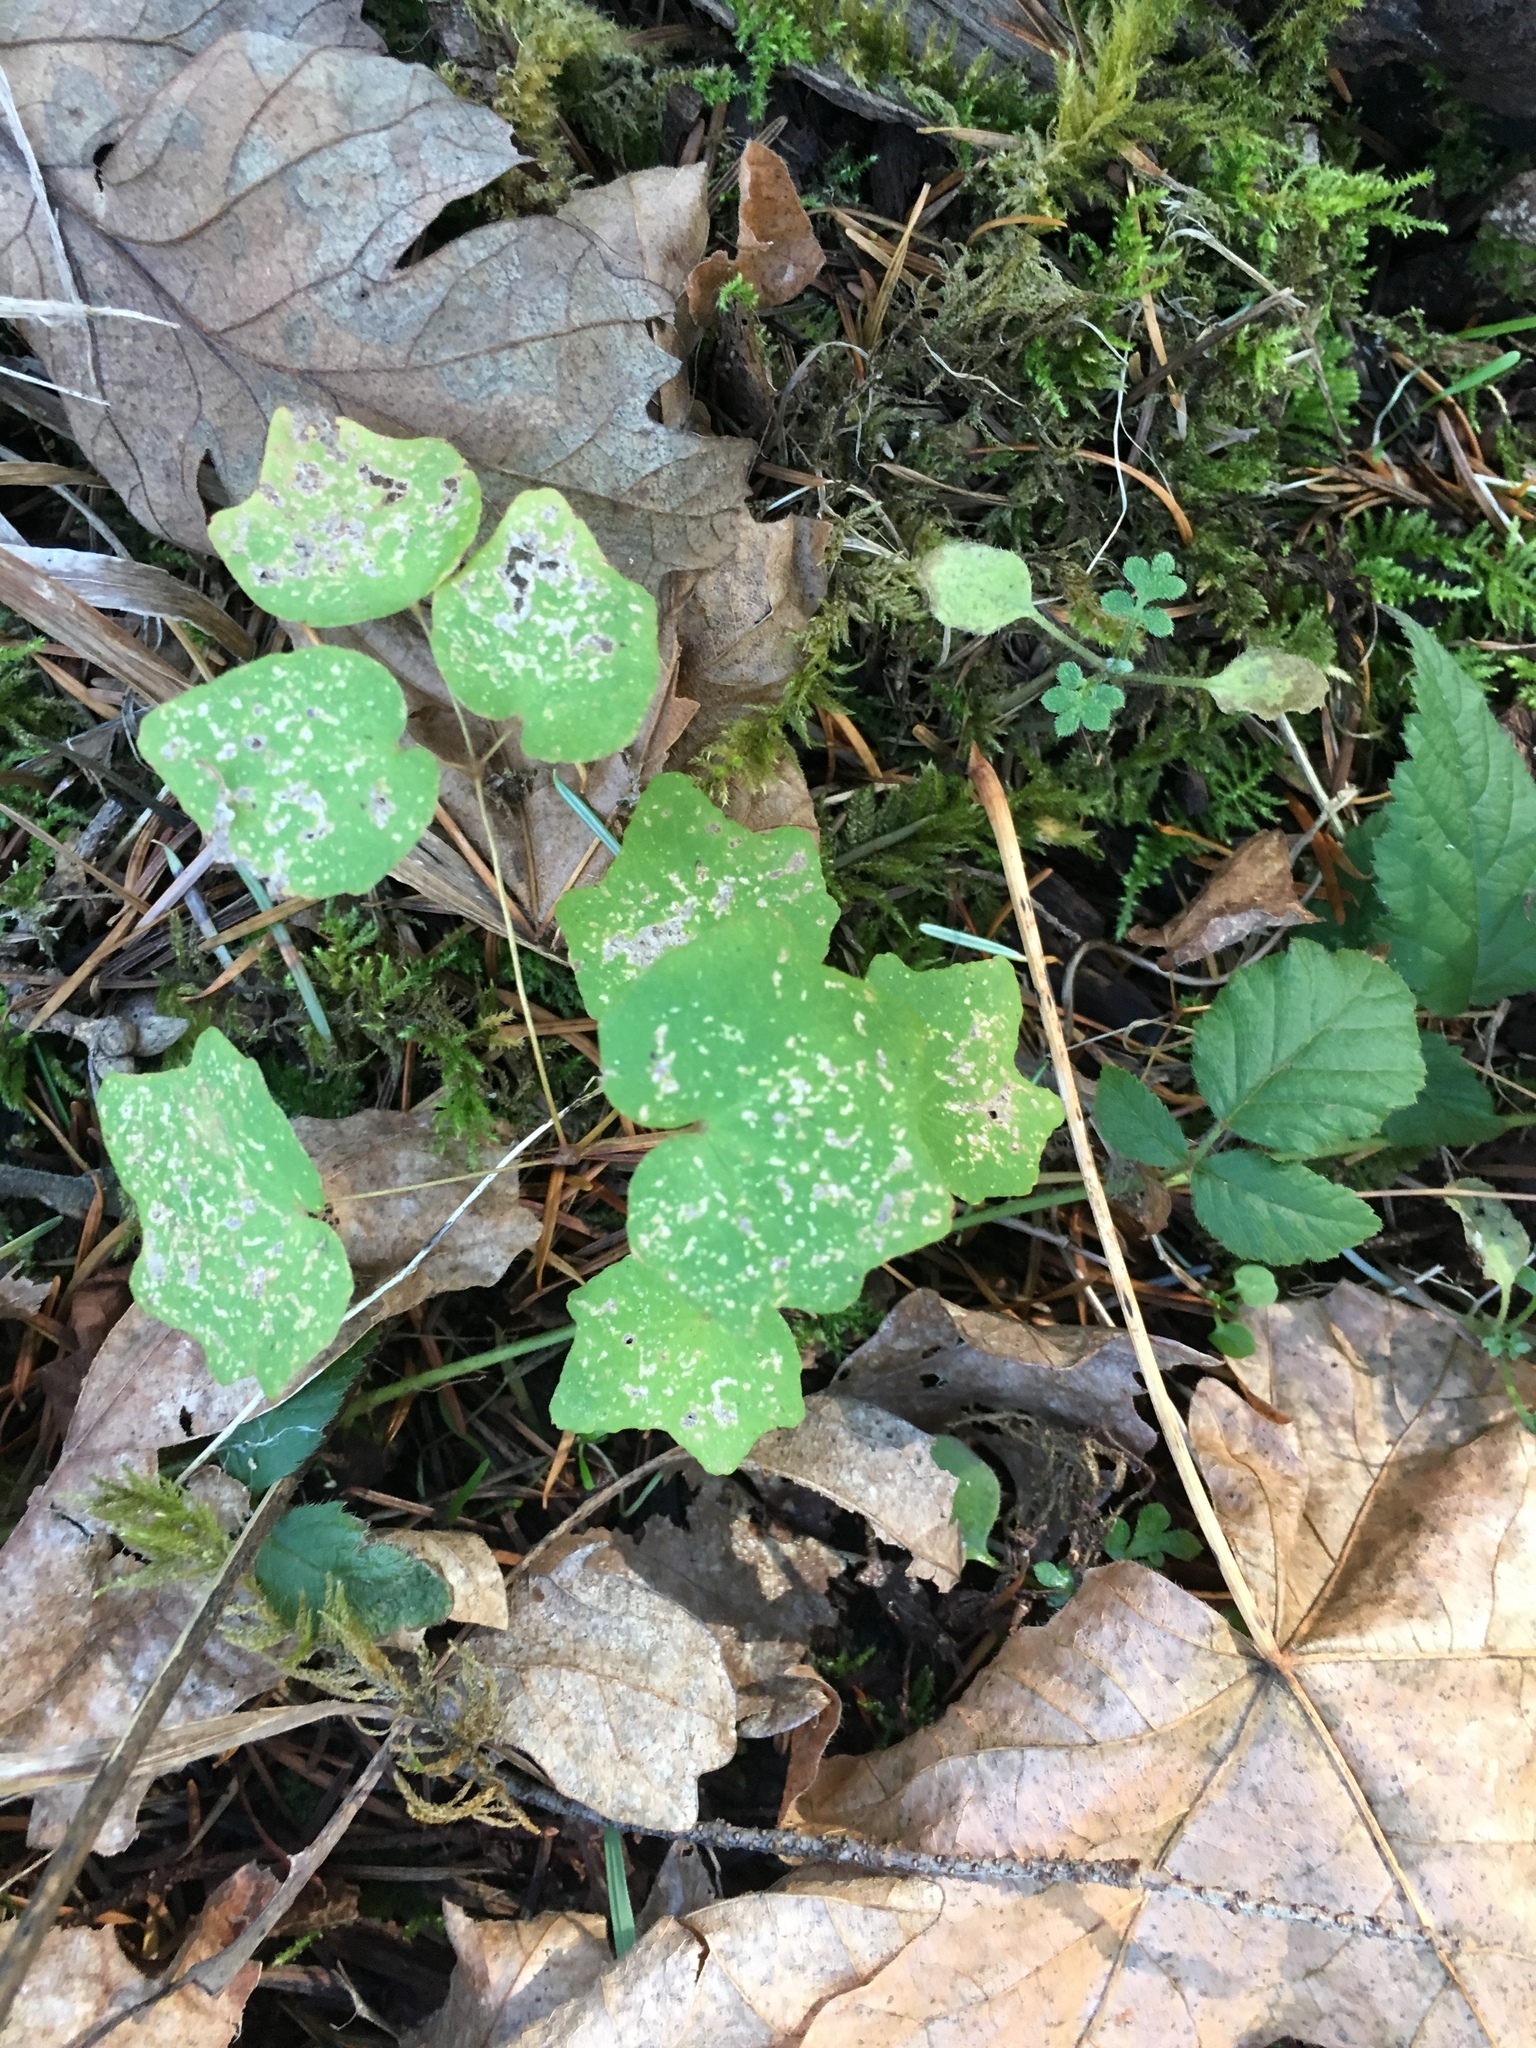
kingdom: Plantae
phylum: Tracheophyta
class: Magnoliopsida
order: Ranunculales
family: Berberidaceae
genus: Vancouveria
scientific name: Vancouveria hexandra
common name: Northern inside-out-flower
